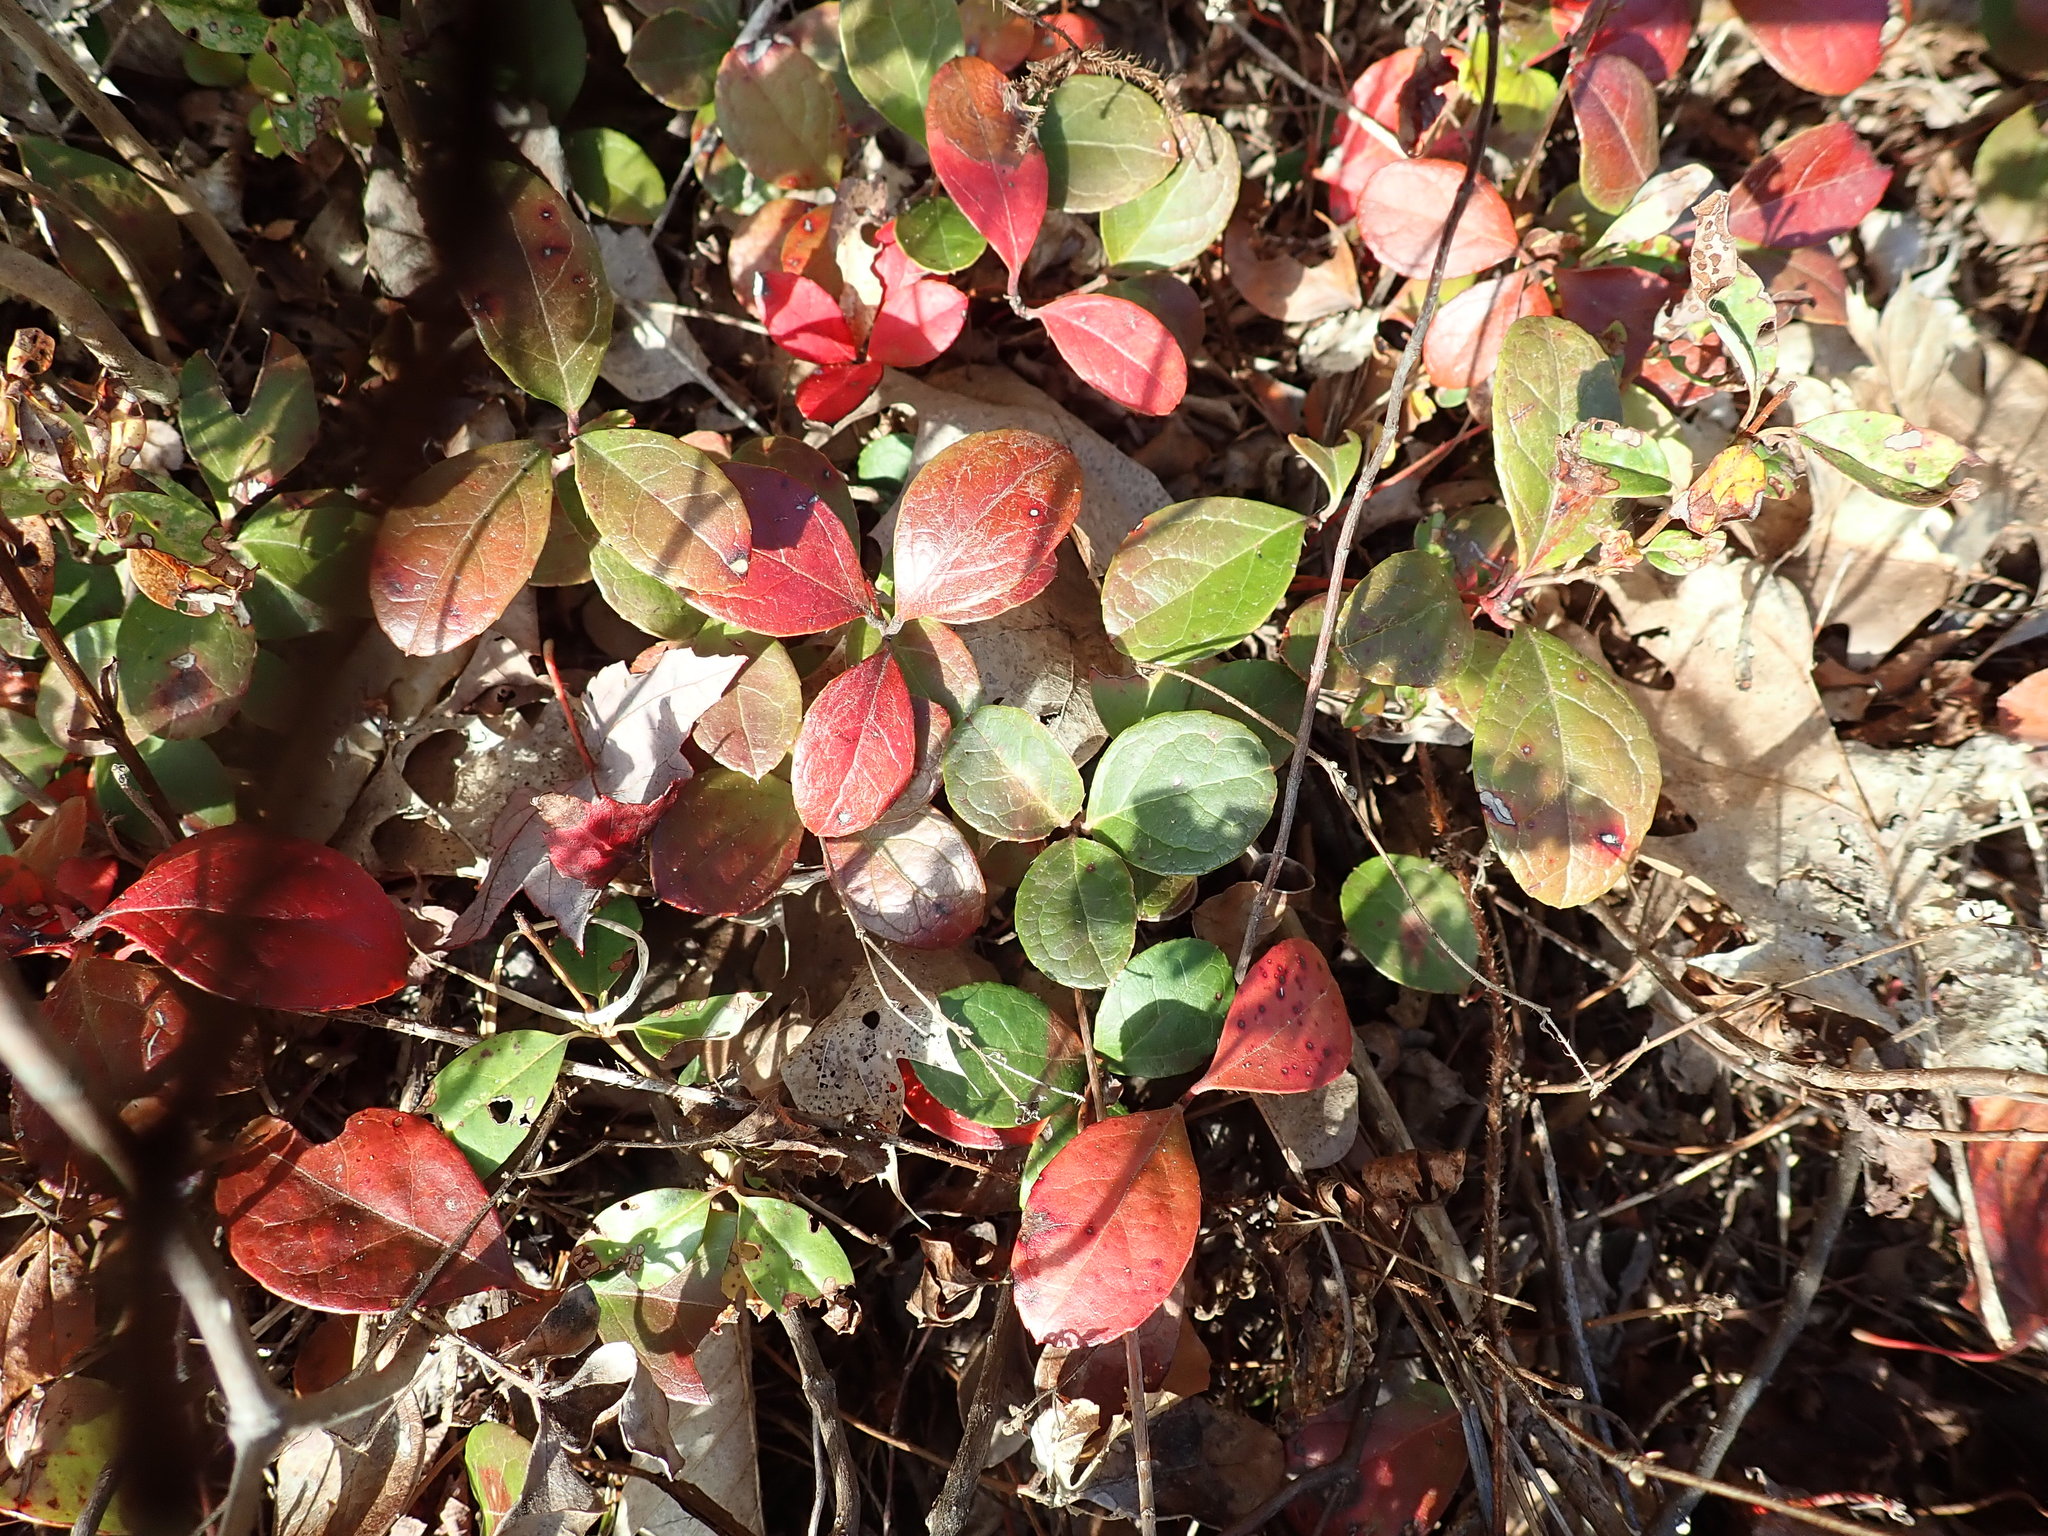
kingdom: Plantae
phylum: Tracheophyta
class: Magnoliopsida
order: Ericales
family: Ericaceae
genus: Gaultheria
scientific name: Gaultheria procumbens
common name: Checkerberry
